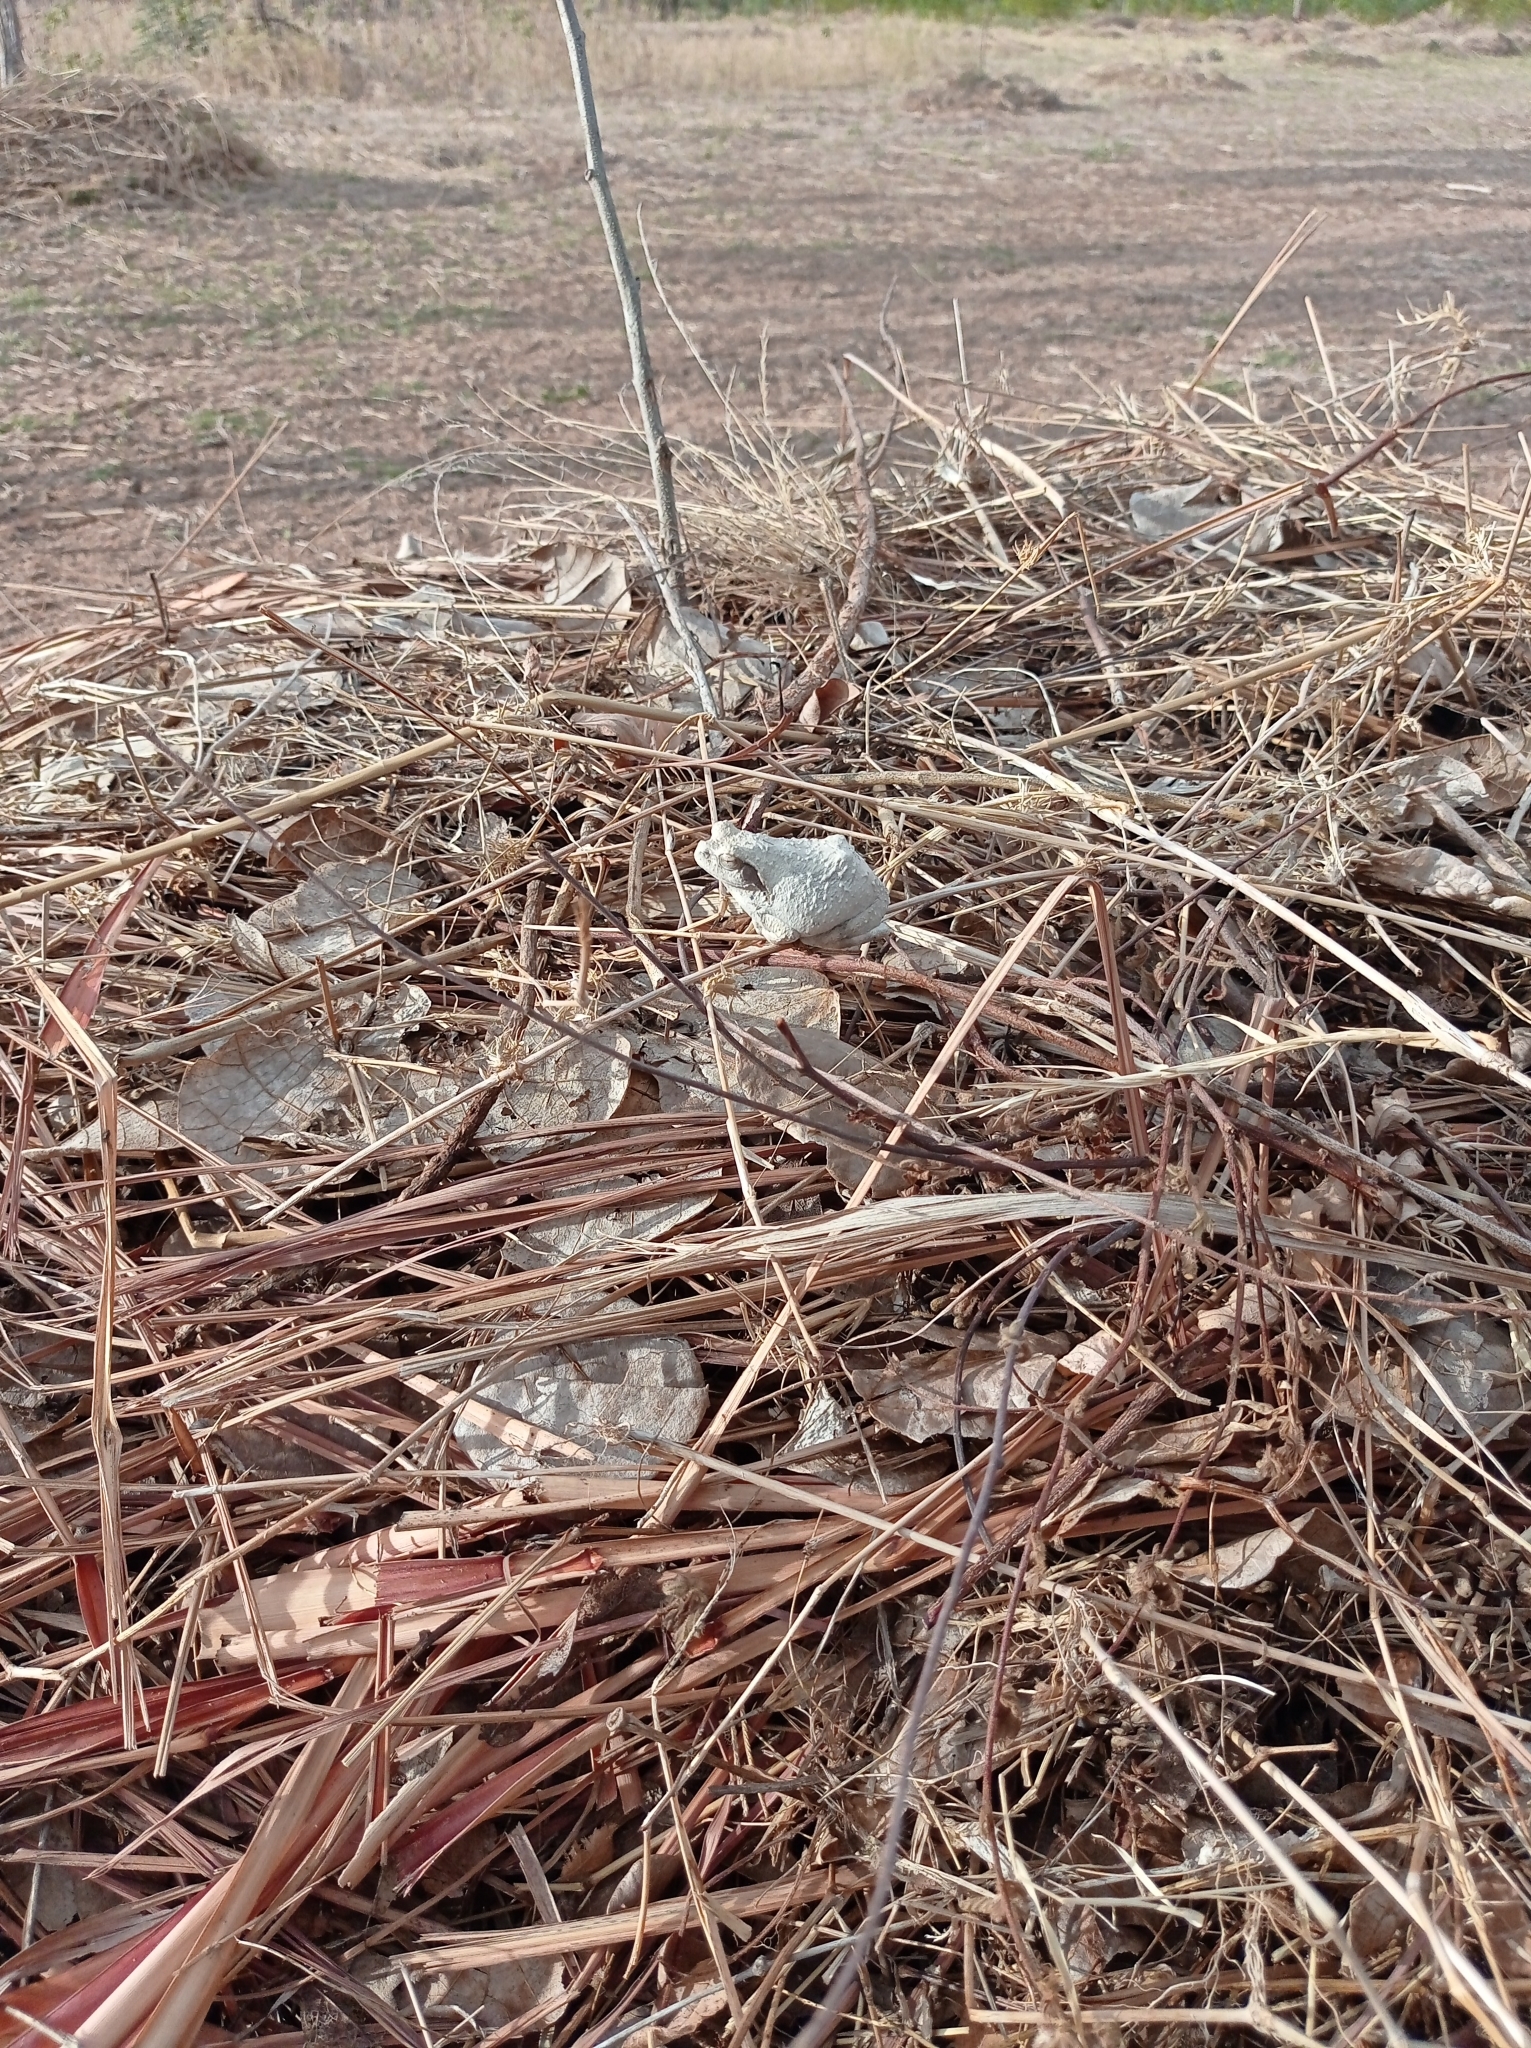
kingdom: Animalia
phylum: Chordata
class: Amphibia
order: Anura
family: Rhacophoridae
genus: Chiromantis
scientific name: Chiromantis xerampelina
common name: African gray treefrog
